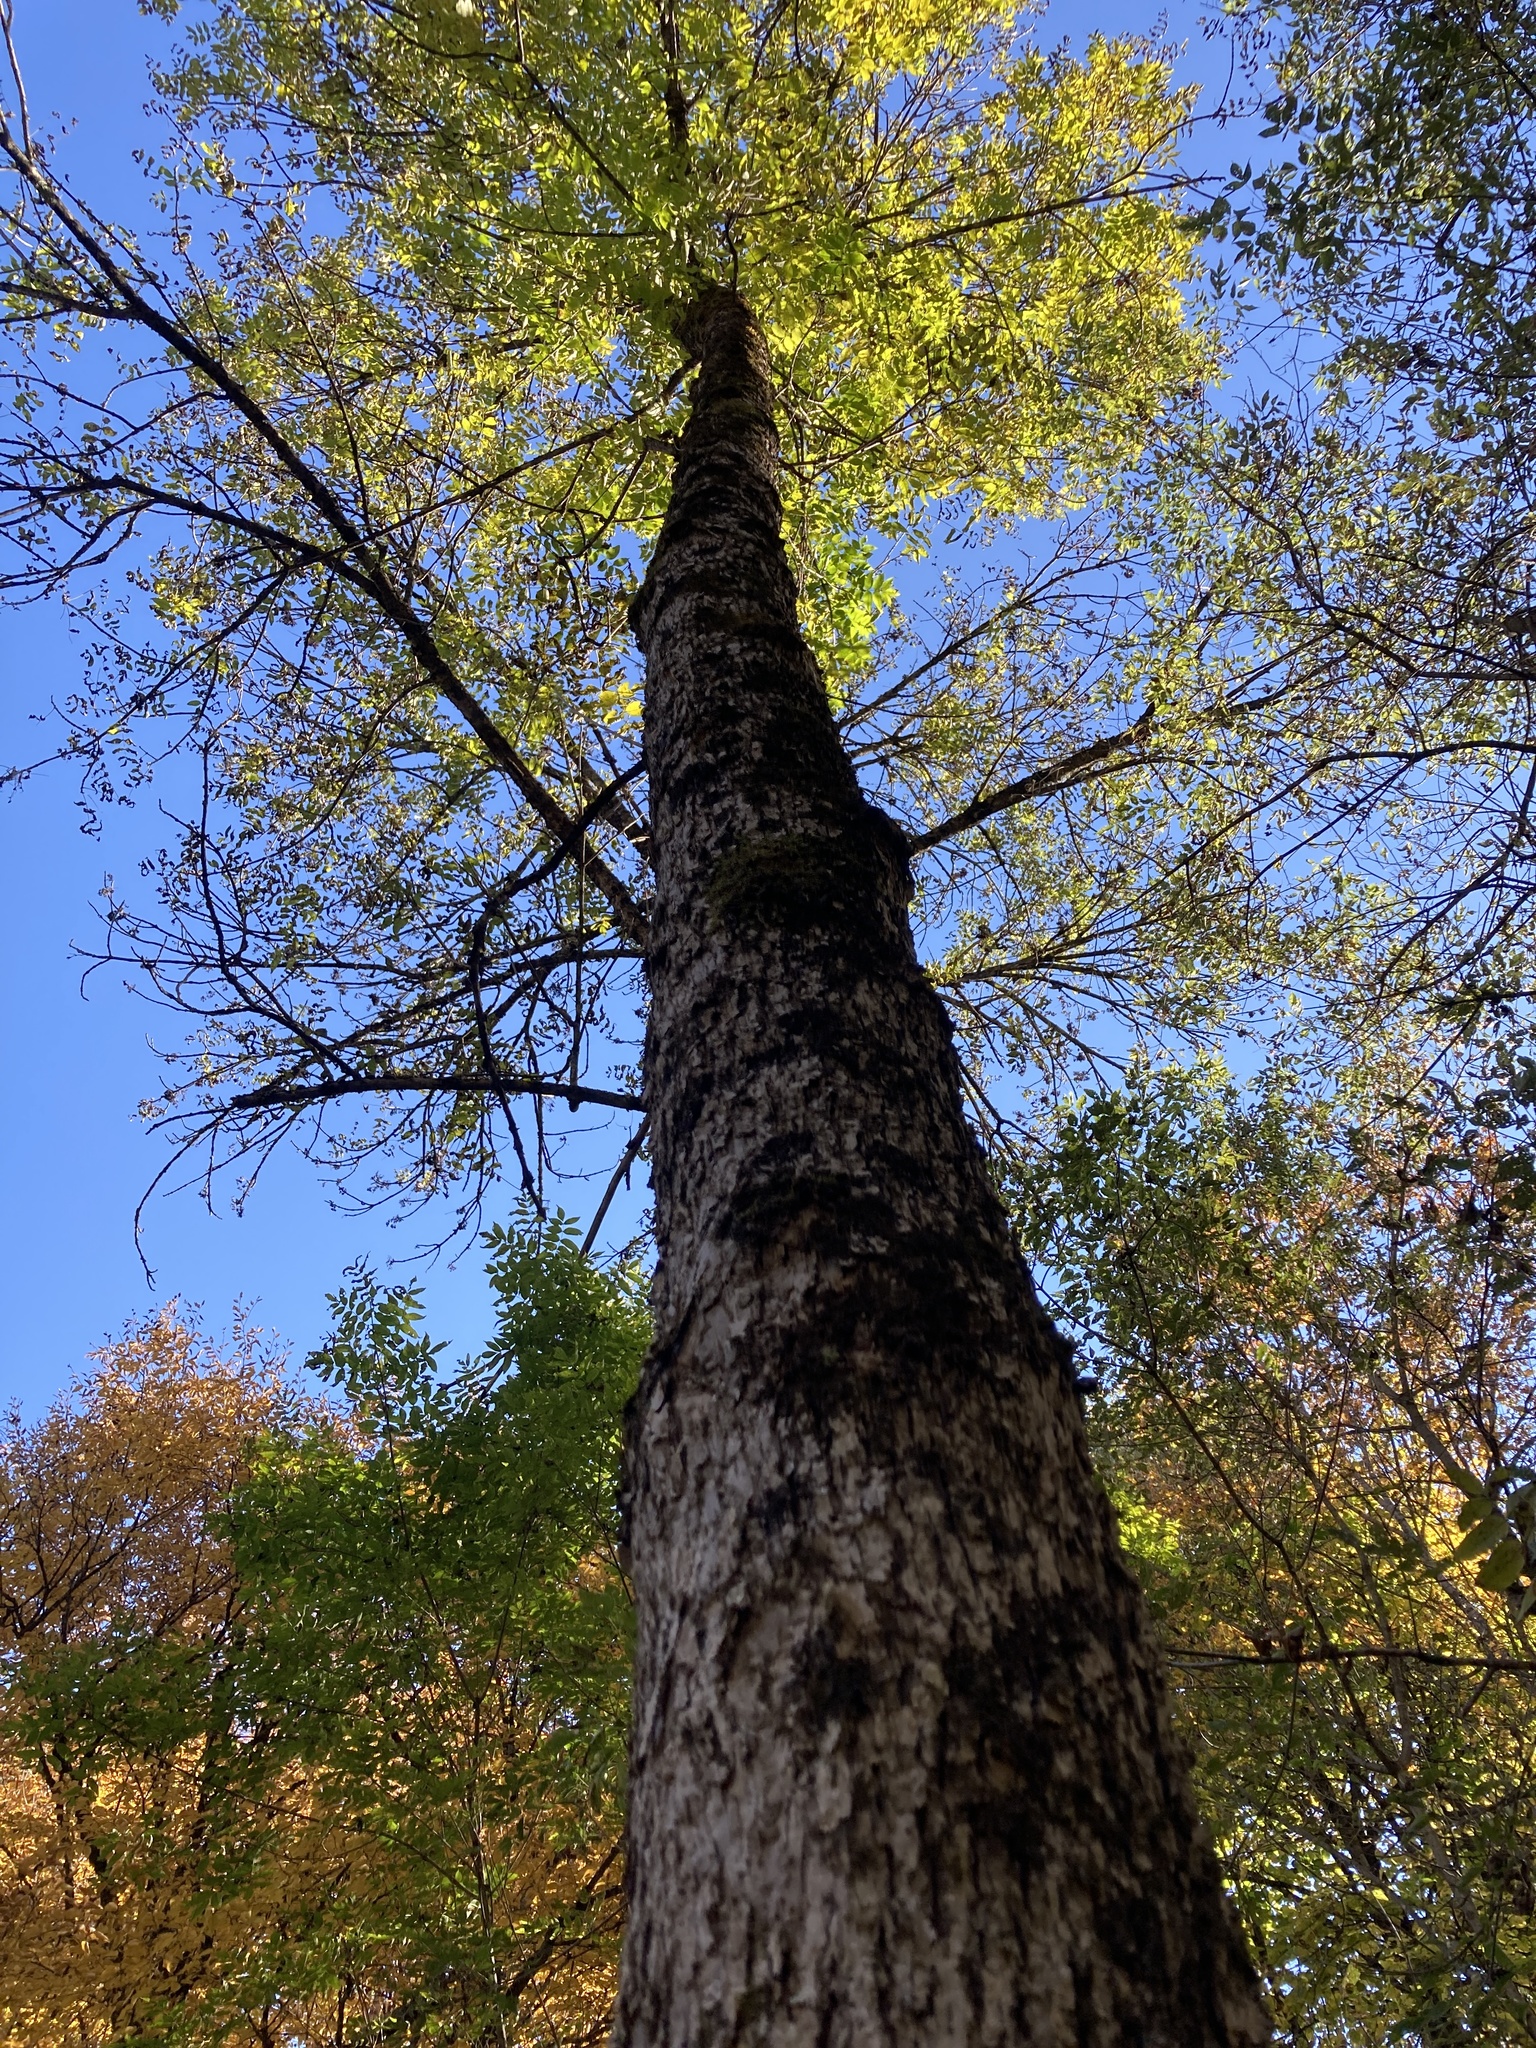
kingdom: Plantae
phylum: Tracheophyta
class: Magnoliopsida
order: Lamiales
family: Oleaceae
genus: Fraxinus
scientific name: Fraxinus nigra
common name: Black ash
